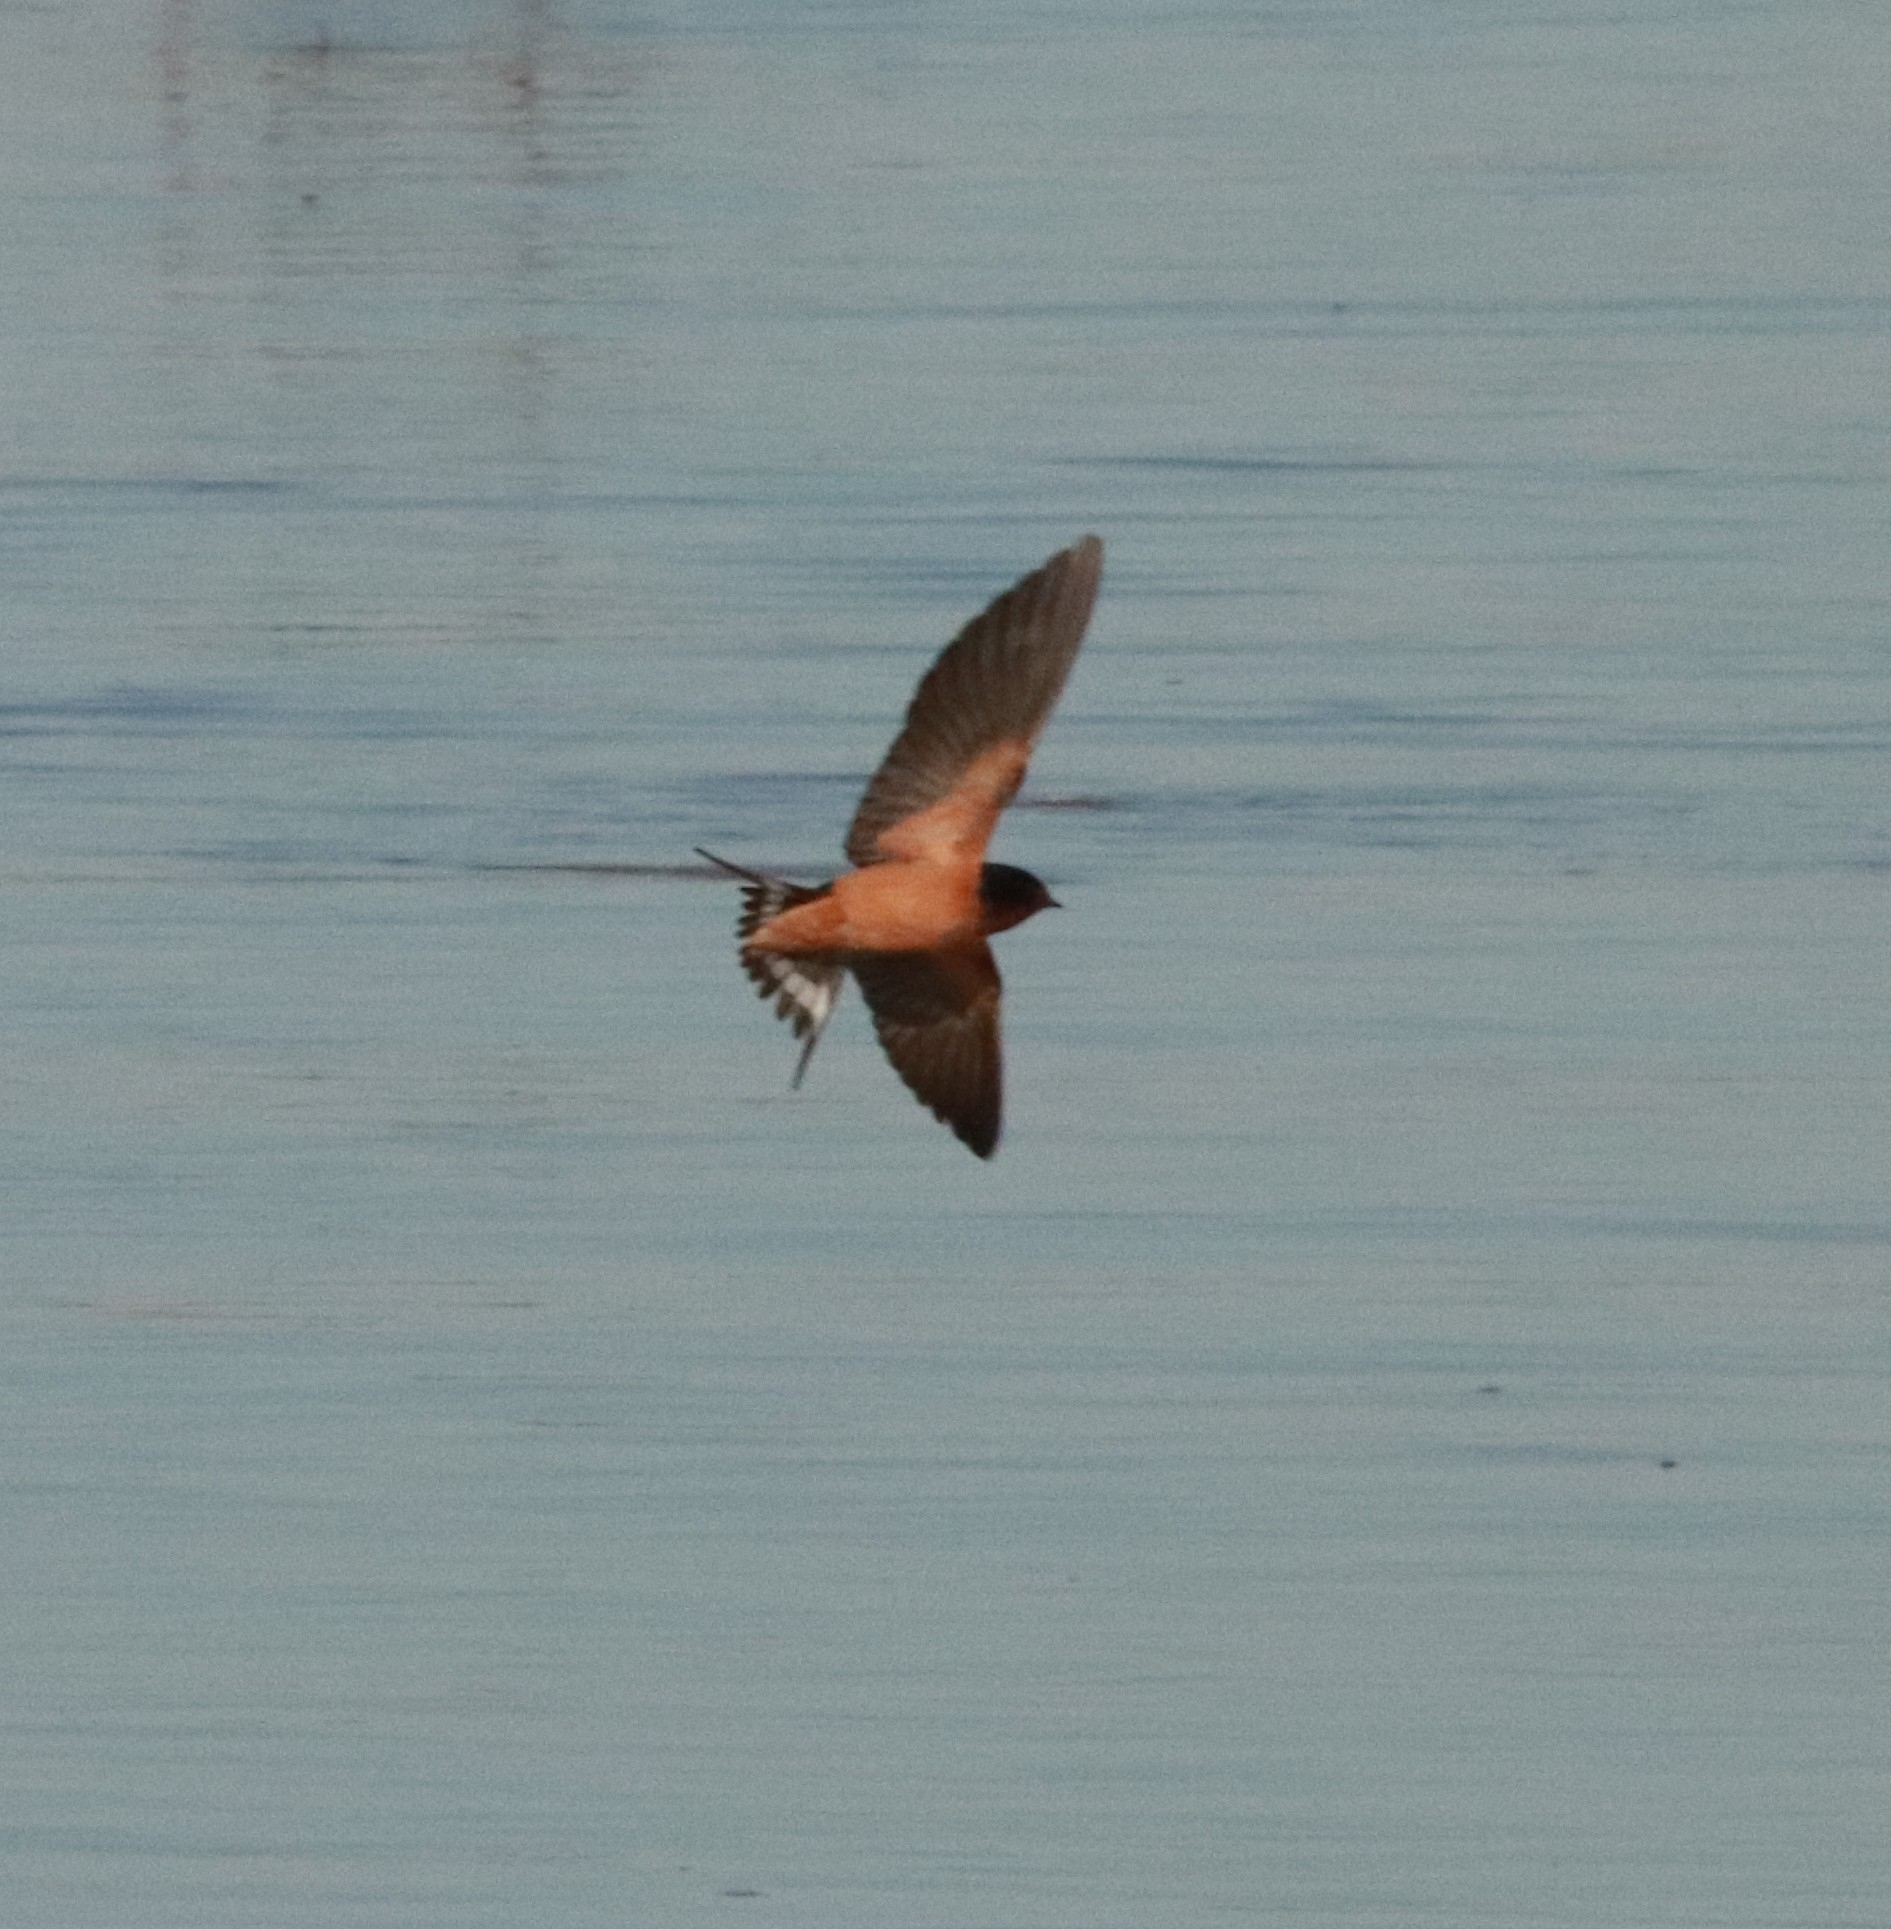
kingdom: Animalia
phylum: Chordata
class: Aves
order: Passeriformes
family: Hirundinidae
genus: Hirundo
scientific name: Hirundo rustica
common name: Barn swallow
